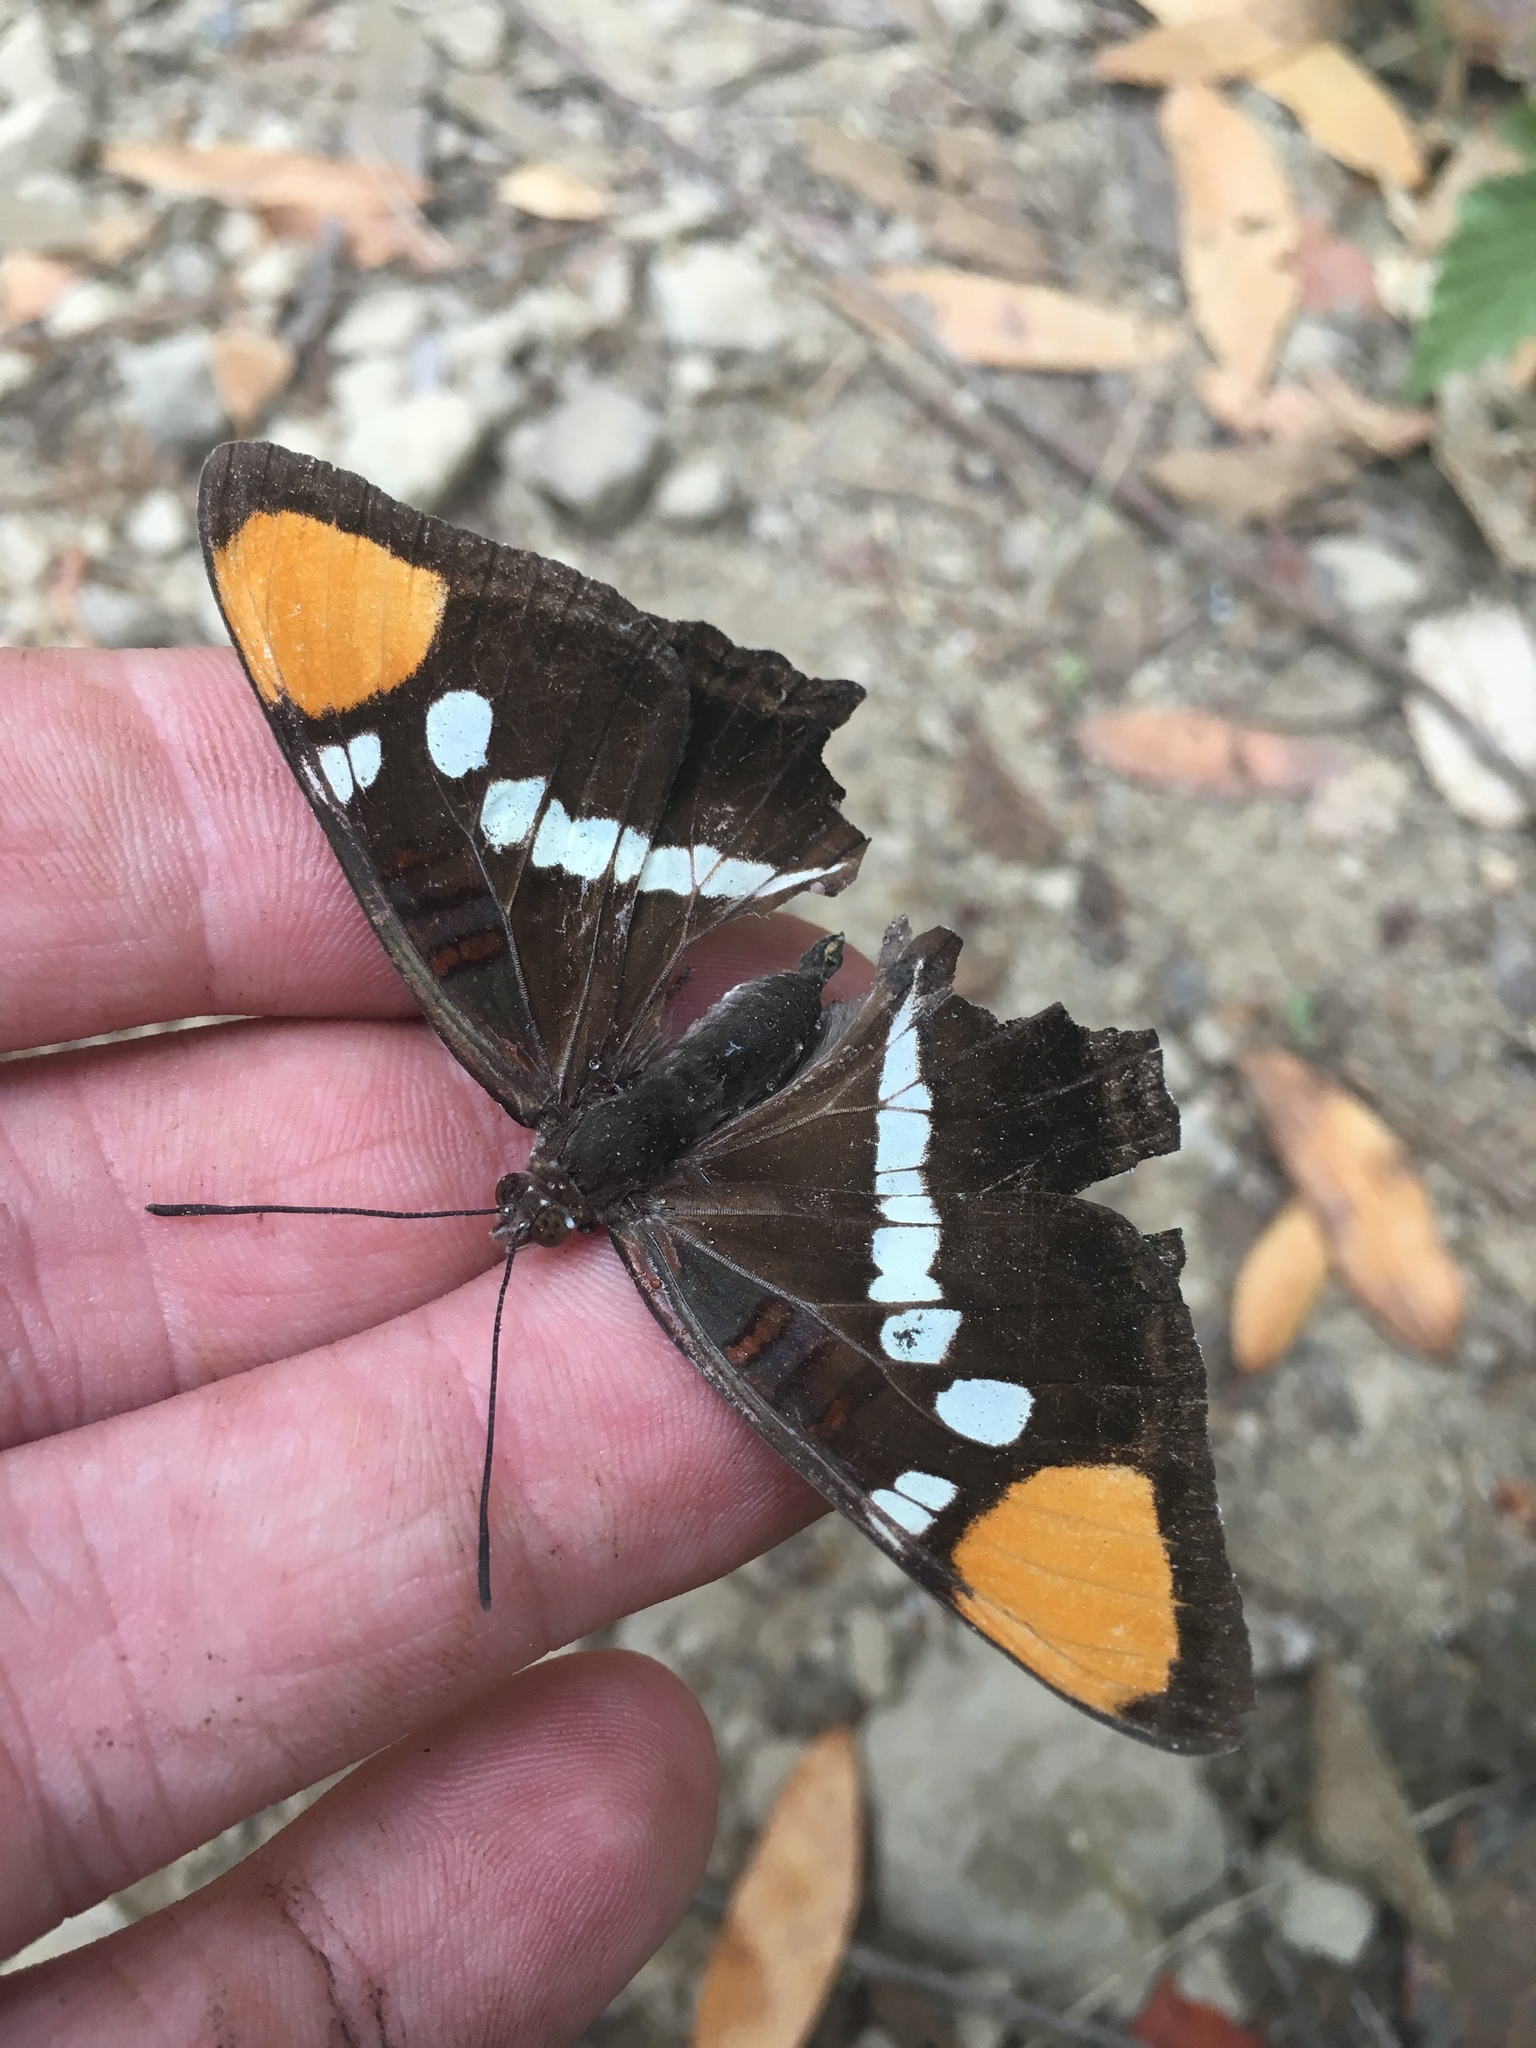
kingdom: Animalia
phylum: Arthropoda
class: Insecta
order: Lepidoptera
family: Nymphalidae
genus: Limenitis
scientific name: Limenitis bredowii
